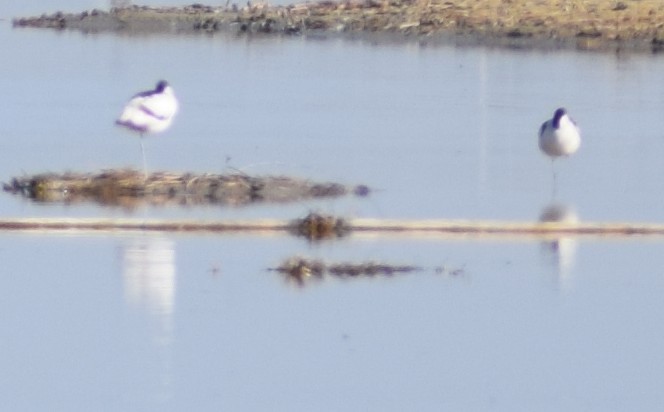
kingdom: Animalia
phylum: Chordata
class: Aves
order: Charadriiformes
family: Recurvirostridae
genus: Recurvirostra
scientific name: Recurvirostra avosetta
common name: Pied avocet
